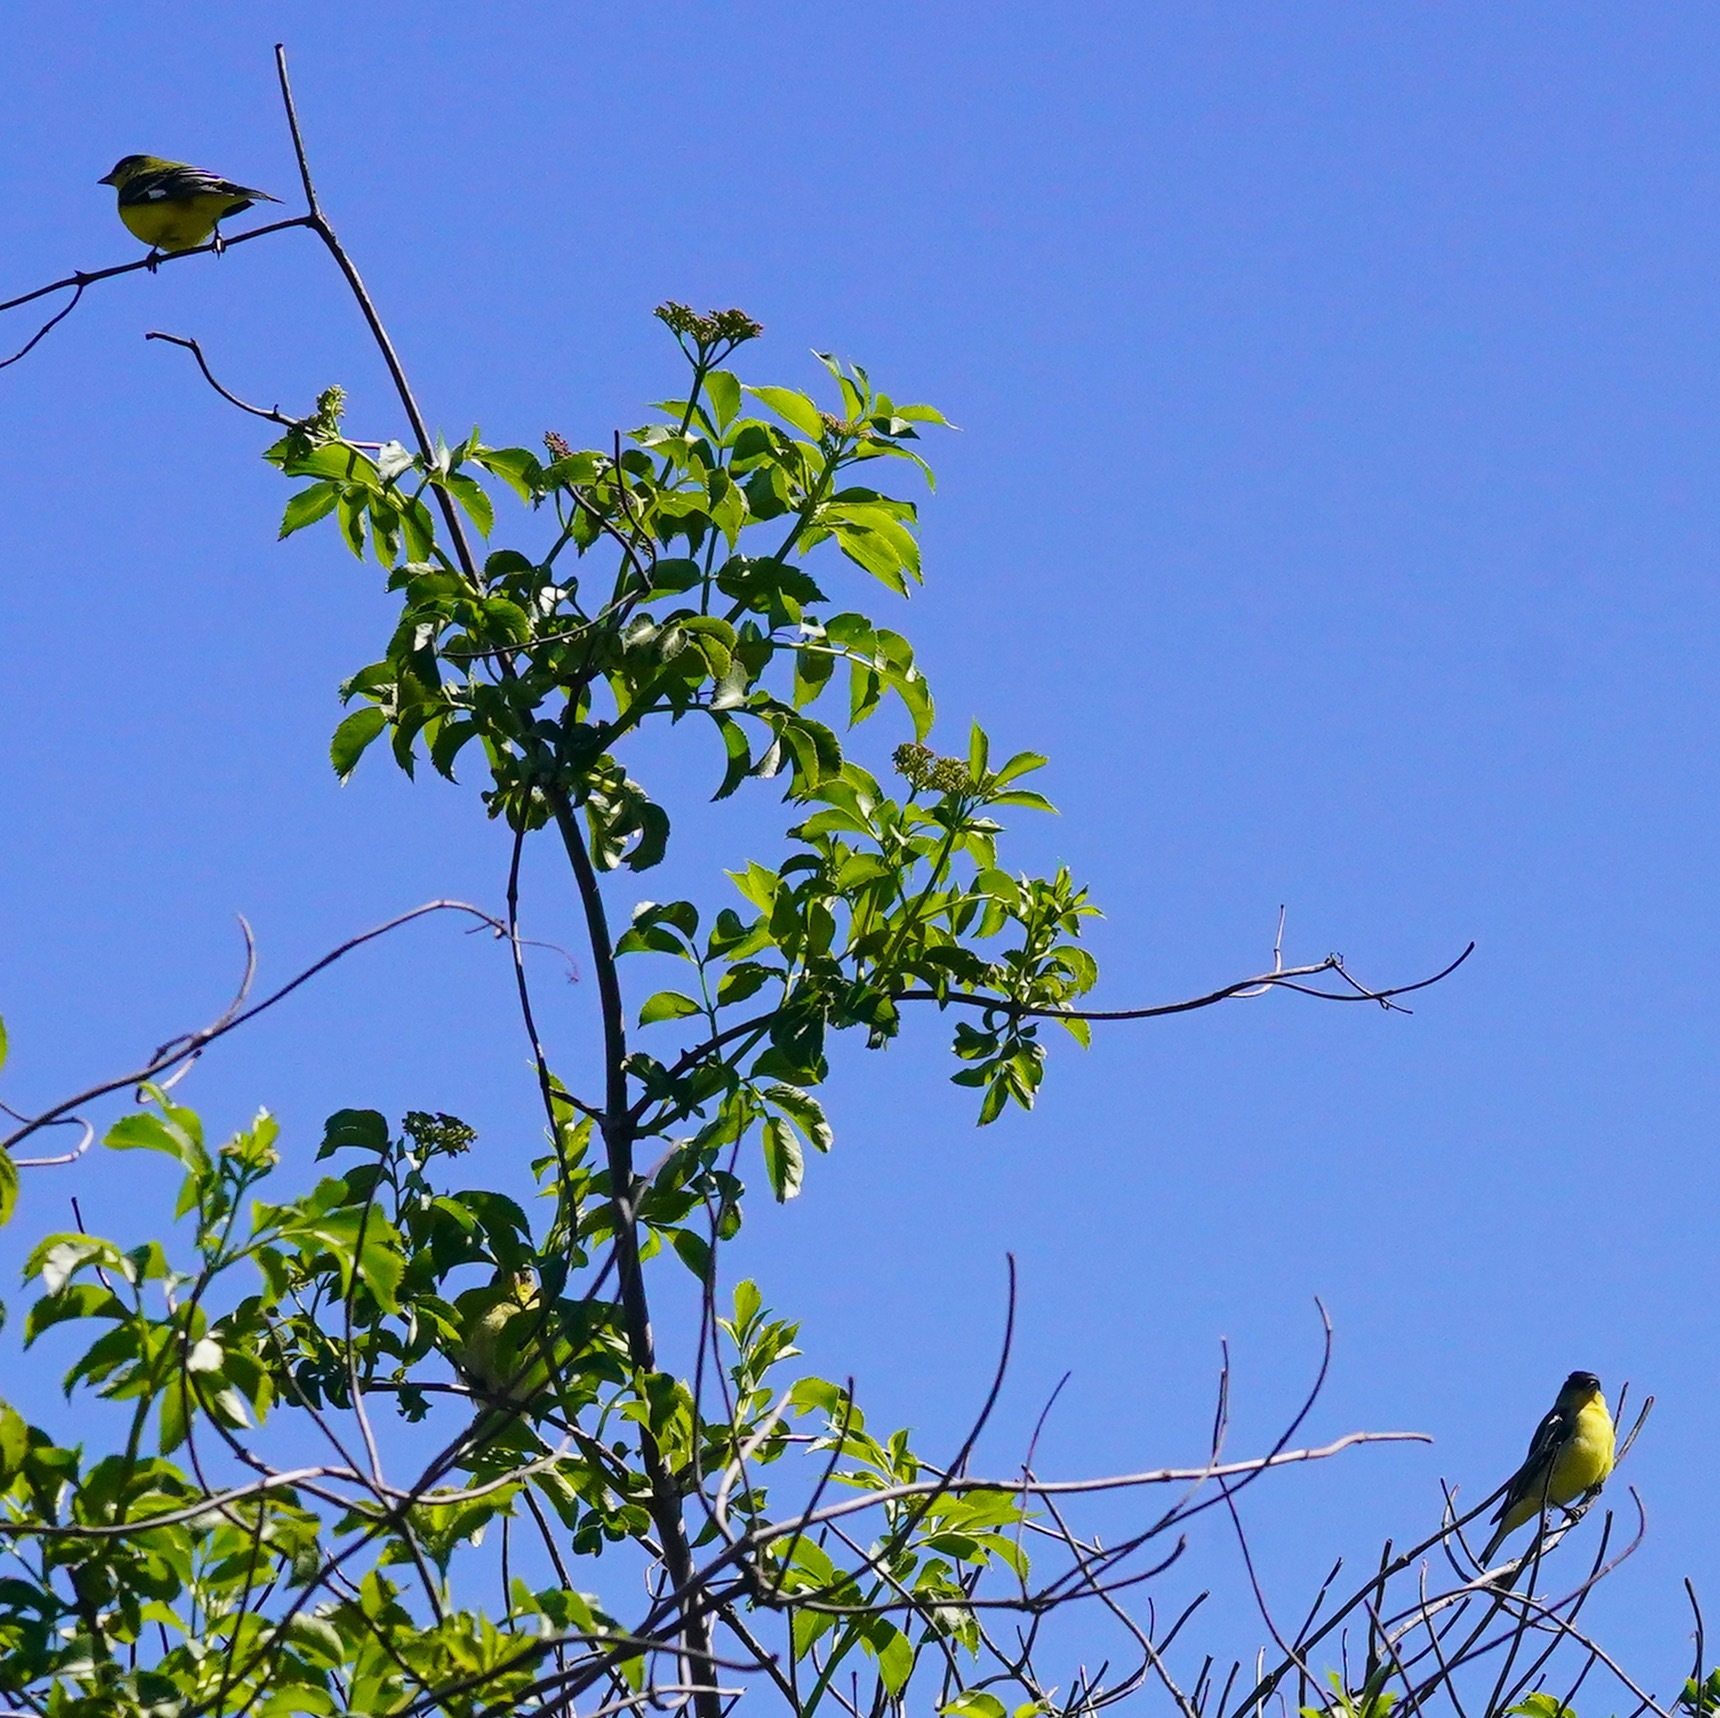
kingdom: Animalia
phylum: Chordata
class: Aves
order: Passeriformes
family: Fringillidae
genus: Spinus
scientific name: Spinus psaltria
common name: Lesser goldfinch
